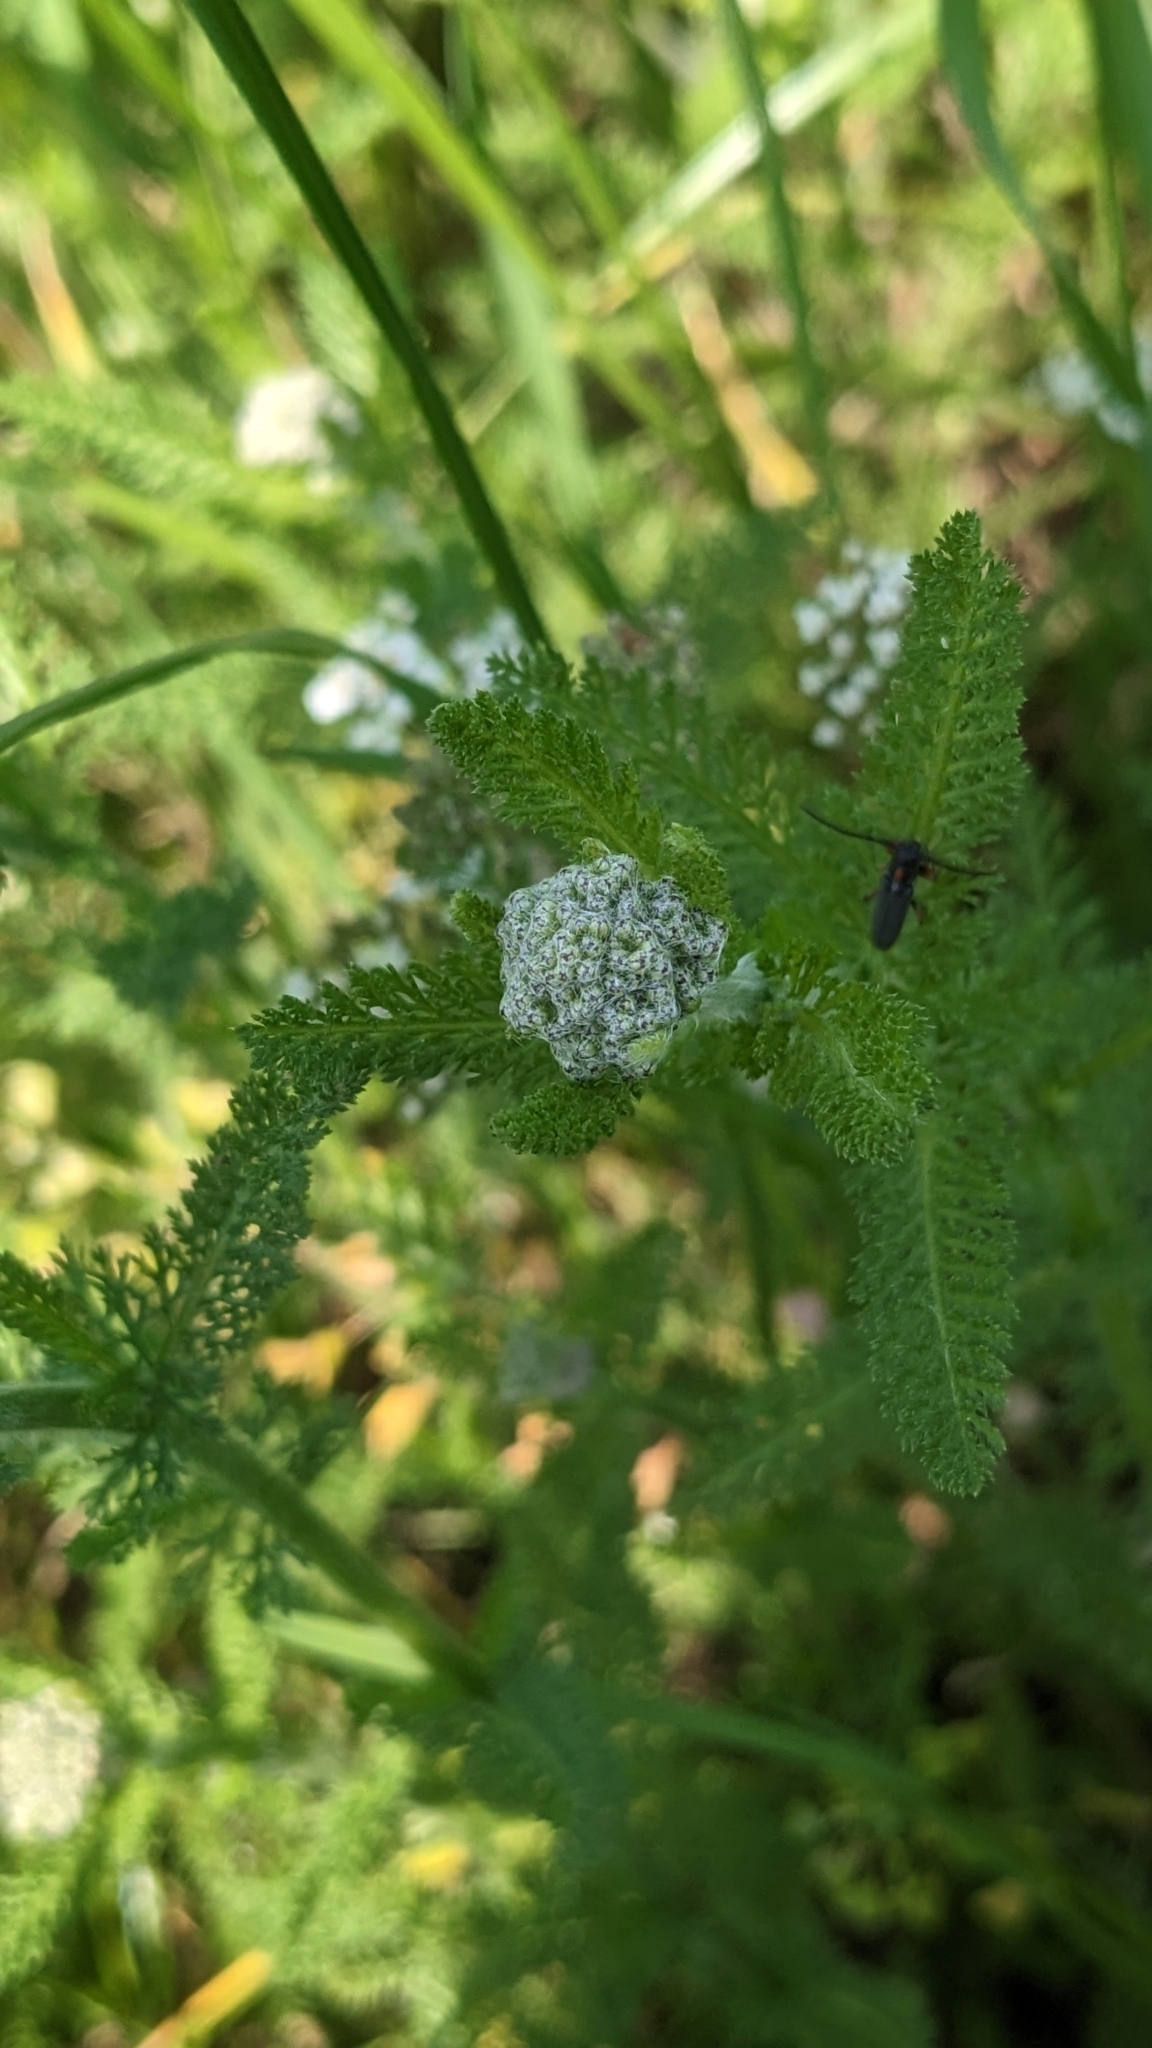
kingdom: Plantae
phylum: Tracheophyta
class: Magnoliopsida
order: Asterales
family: Asteraceae
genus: Achillea
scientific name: Achillea millefolium
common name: Yarrow
